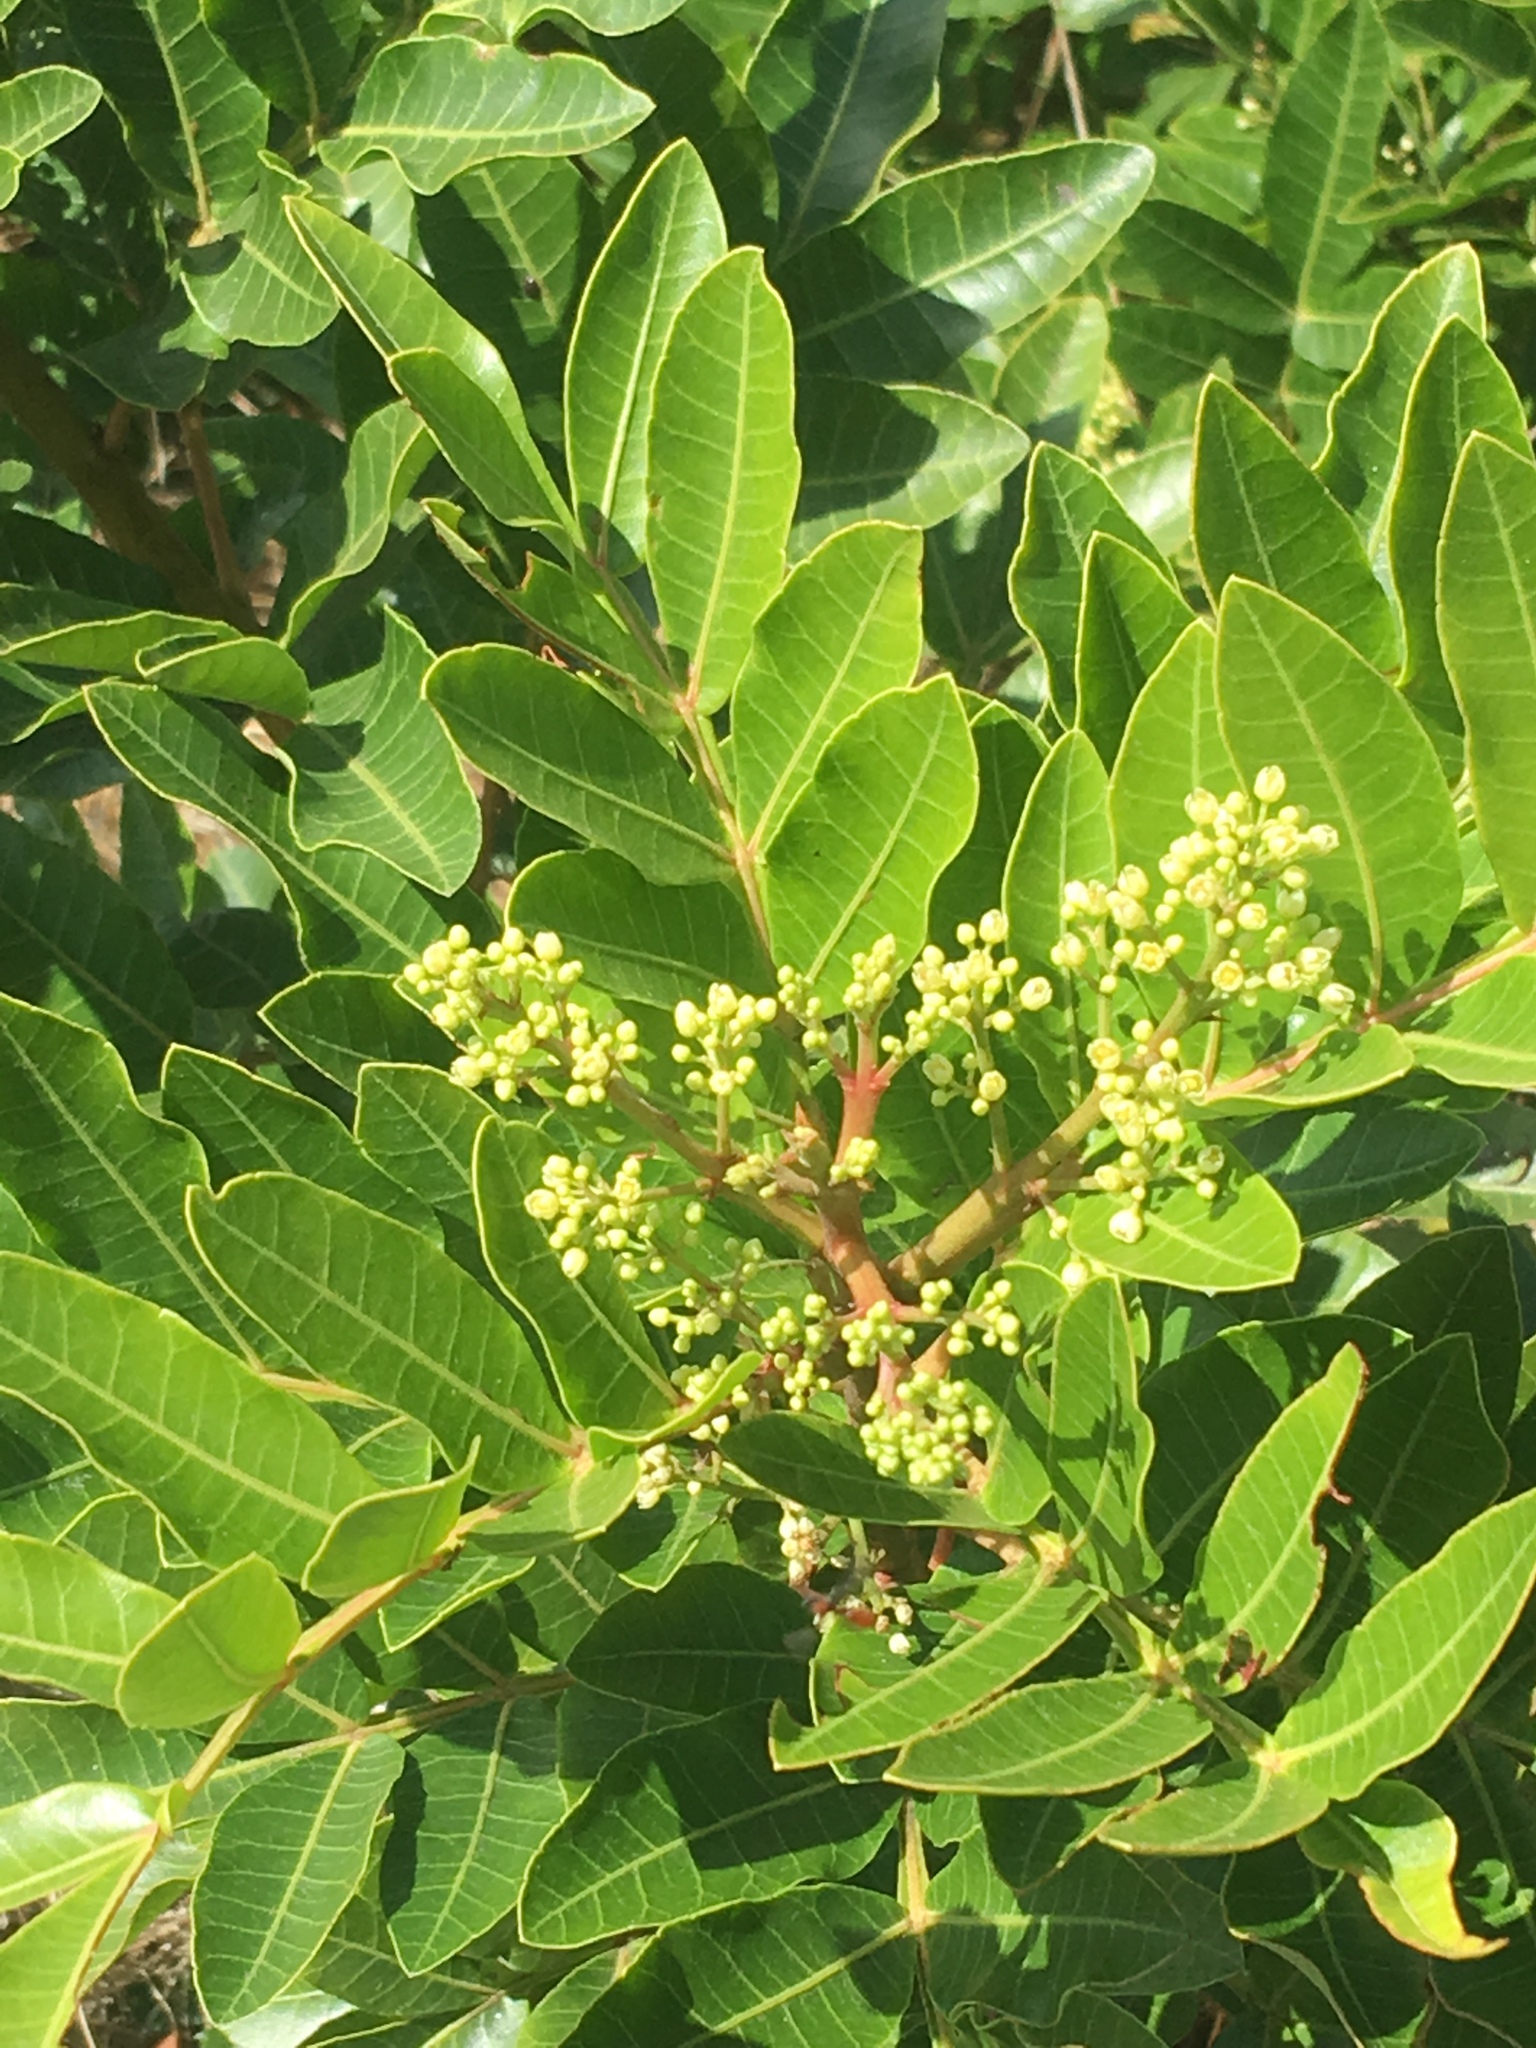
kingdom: Plantae
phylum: Tracheophyta
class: Magnoliopsida
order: Sapindales
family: Anacardiaceae
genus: Schinus
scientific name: Schinus terebinthifolia
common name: Brazilian peppertree
